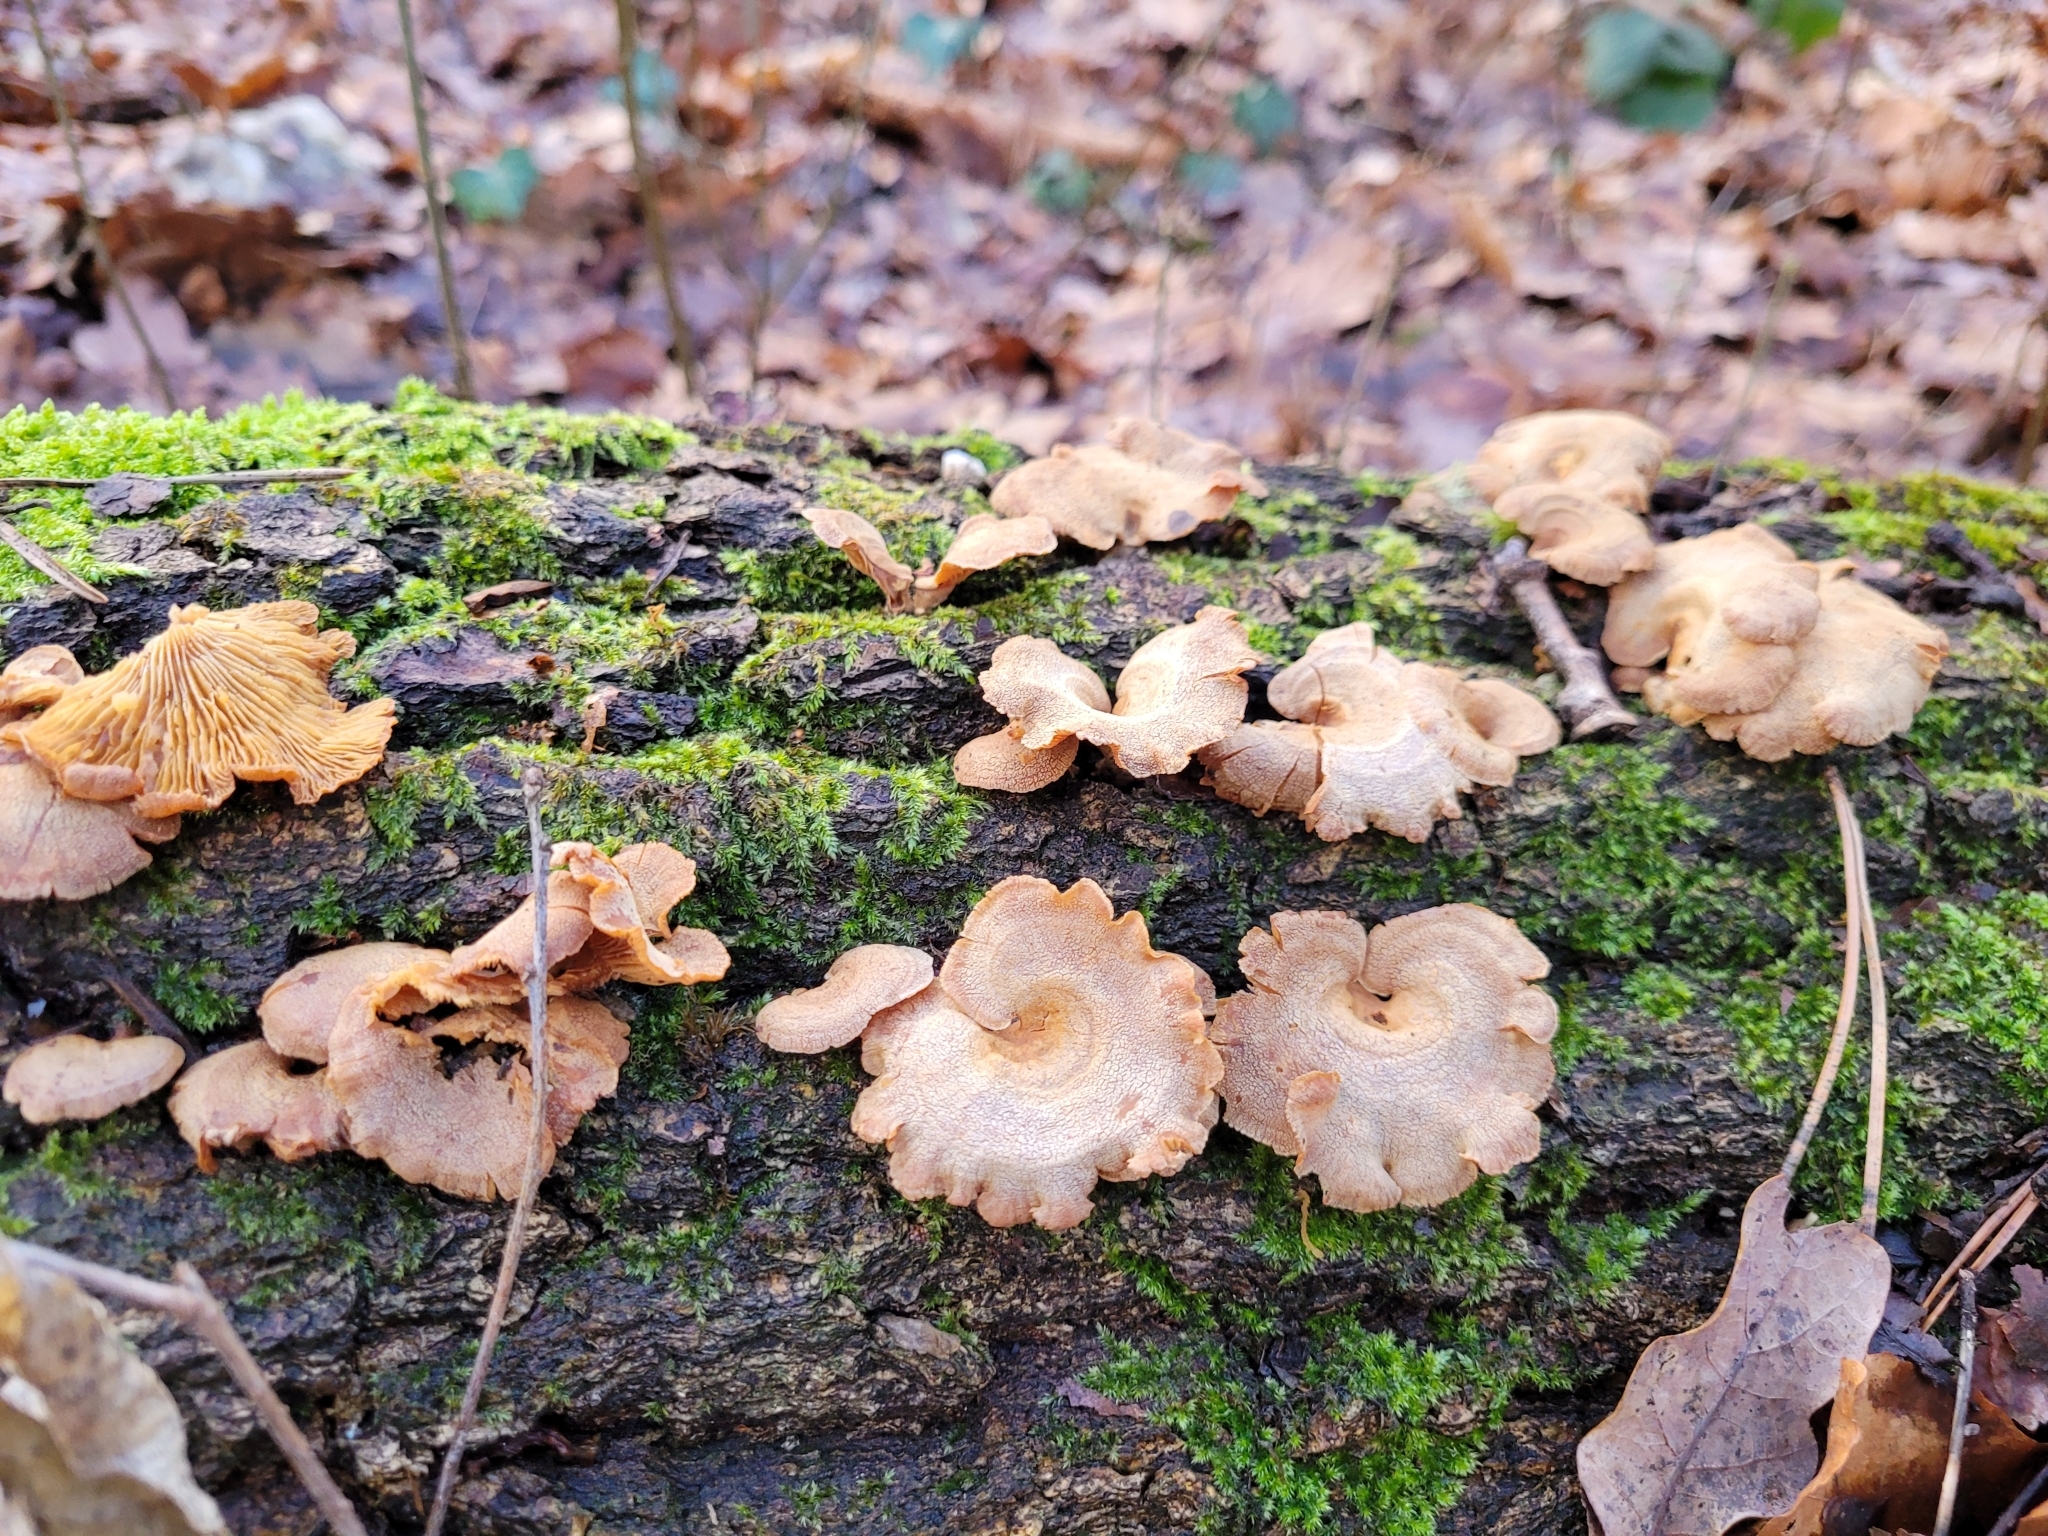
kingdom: Fungi
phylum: Basidiomycota
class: Agaricomycetes
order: Agaricales
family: Mycenaceae
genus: Panellus
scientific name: Panellus stipticus
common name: Bitter oysterling
